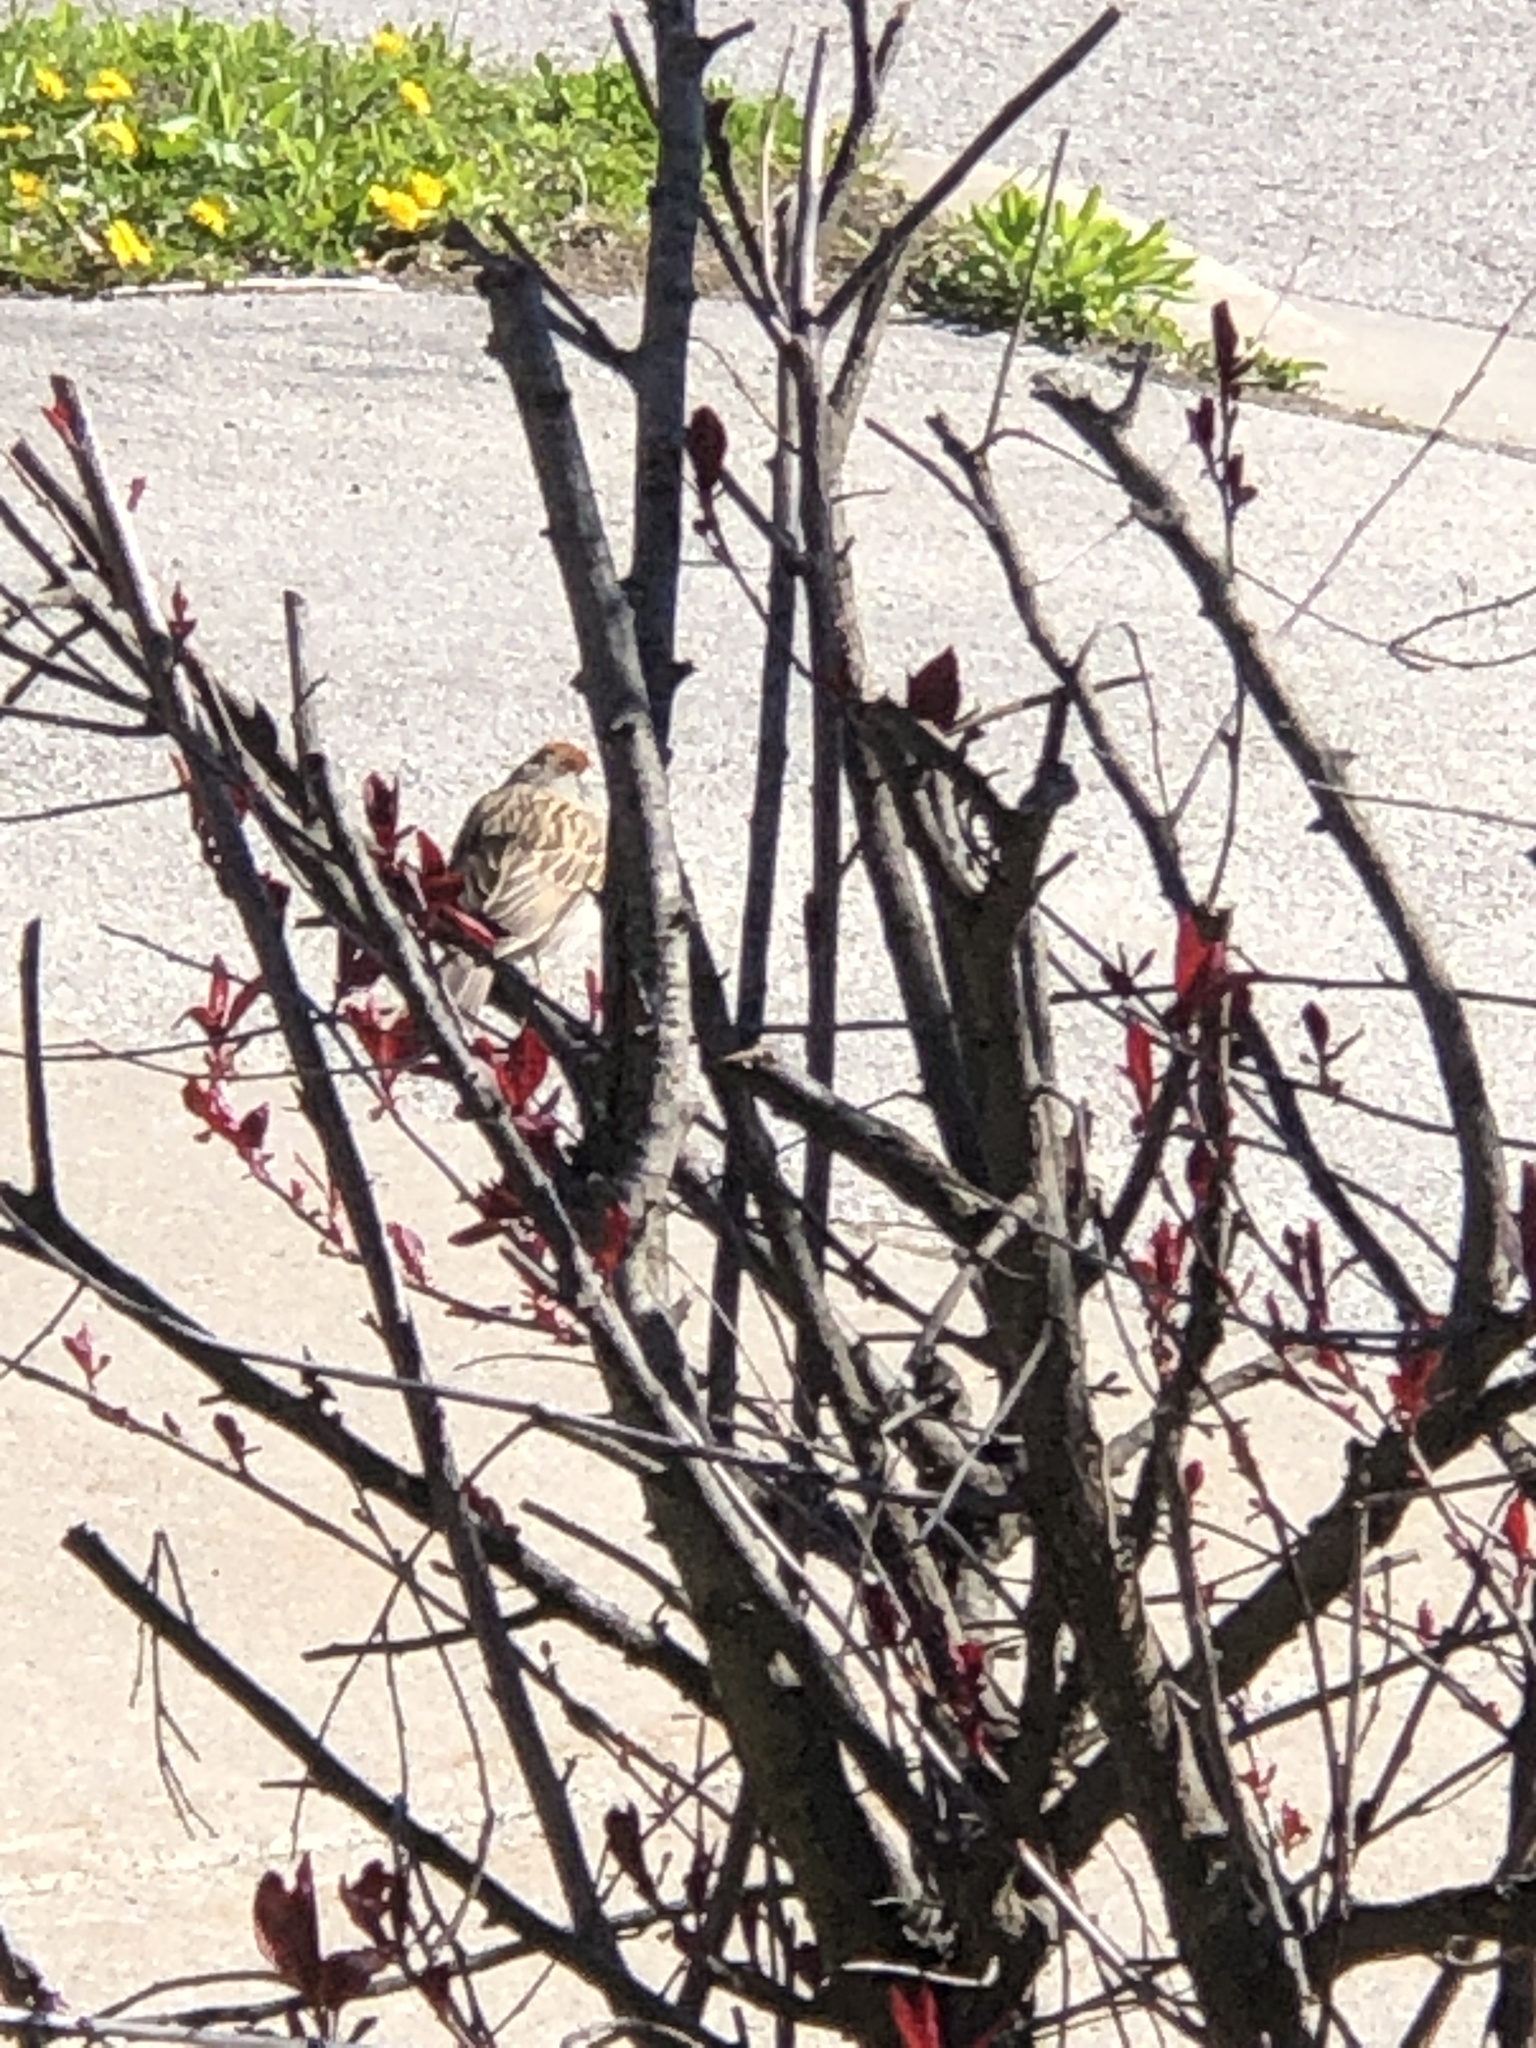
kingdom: Animalia
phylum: Chordata
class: Aves
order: Passeriformes
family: Passerellidae
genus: Spizella
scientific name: Spizella passerina
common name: Chipping sparrow
